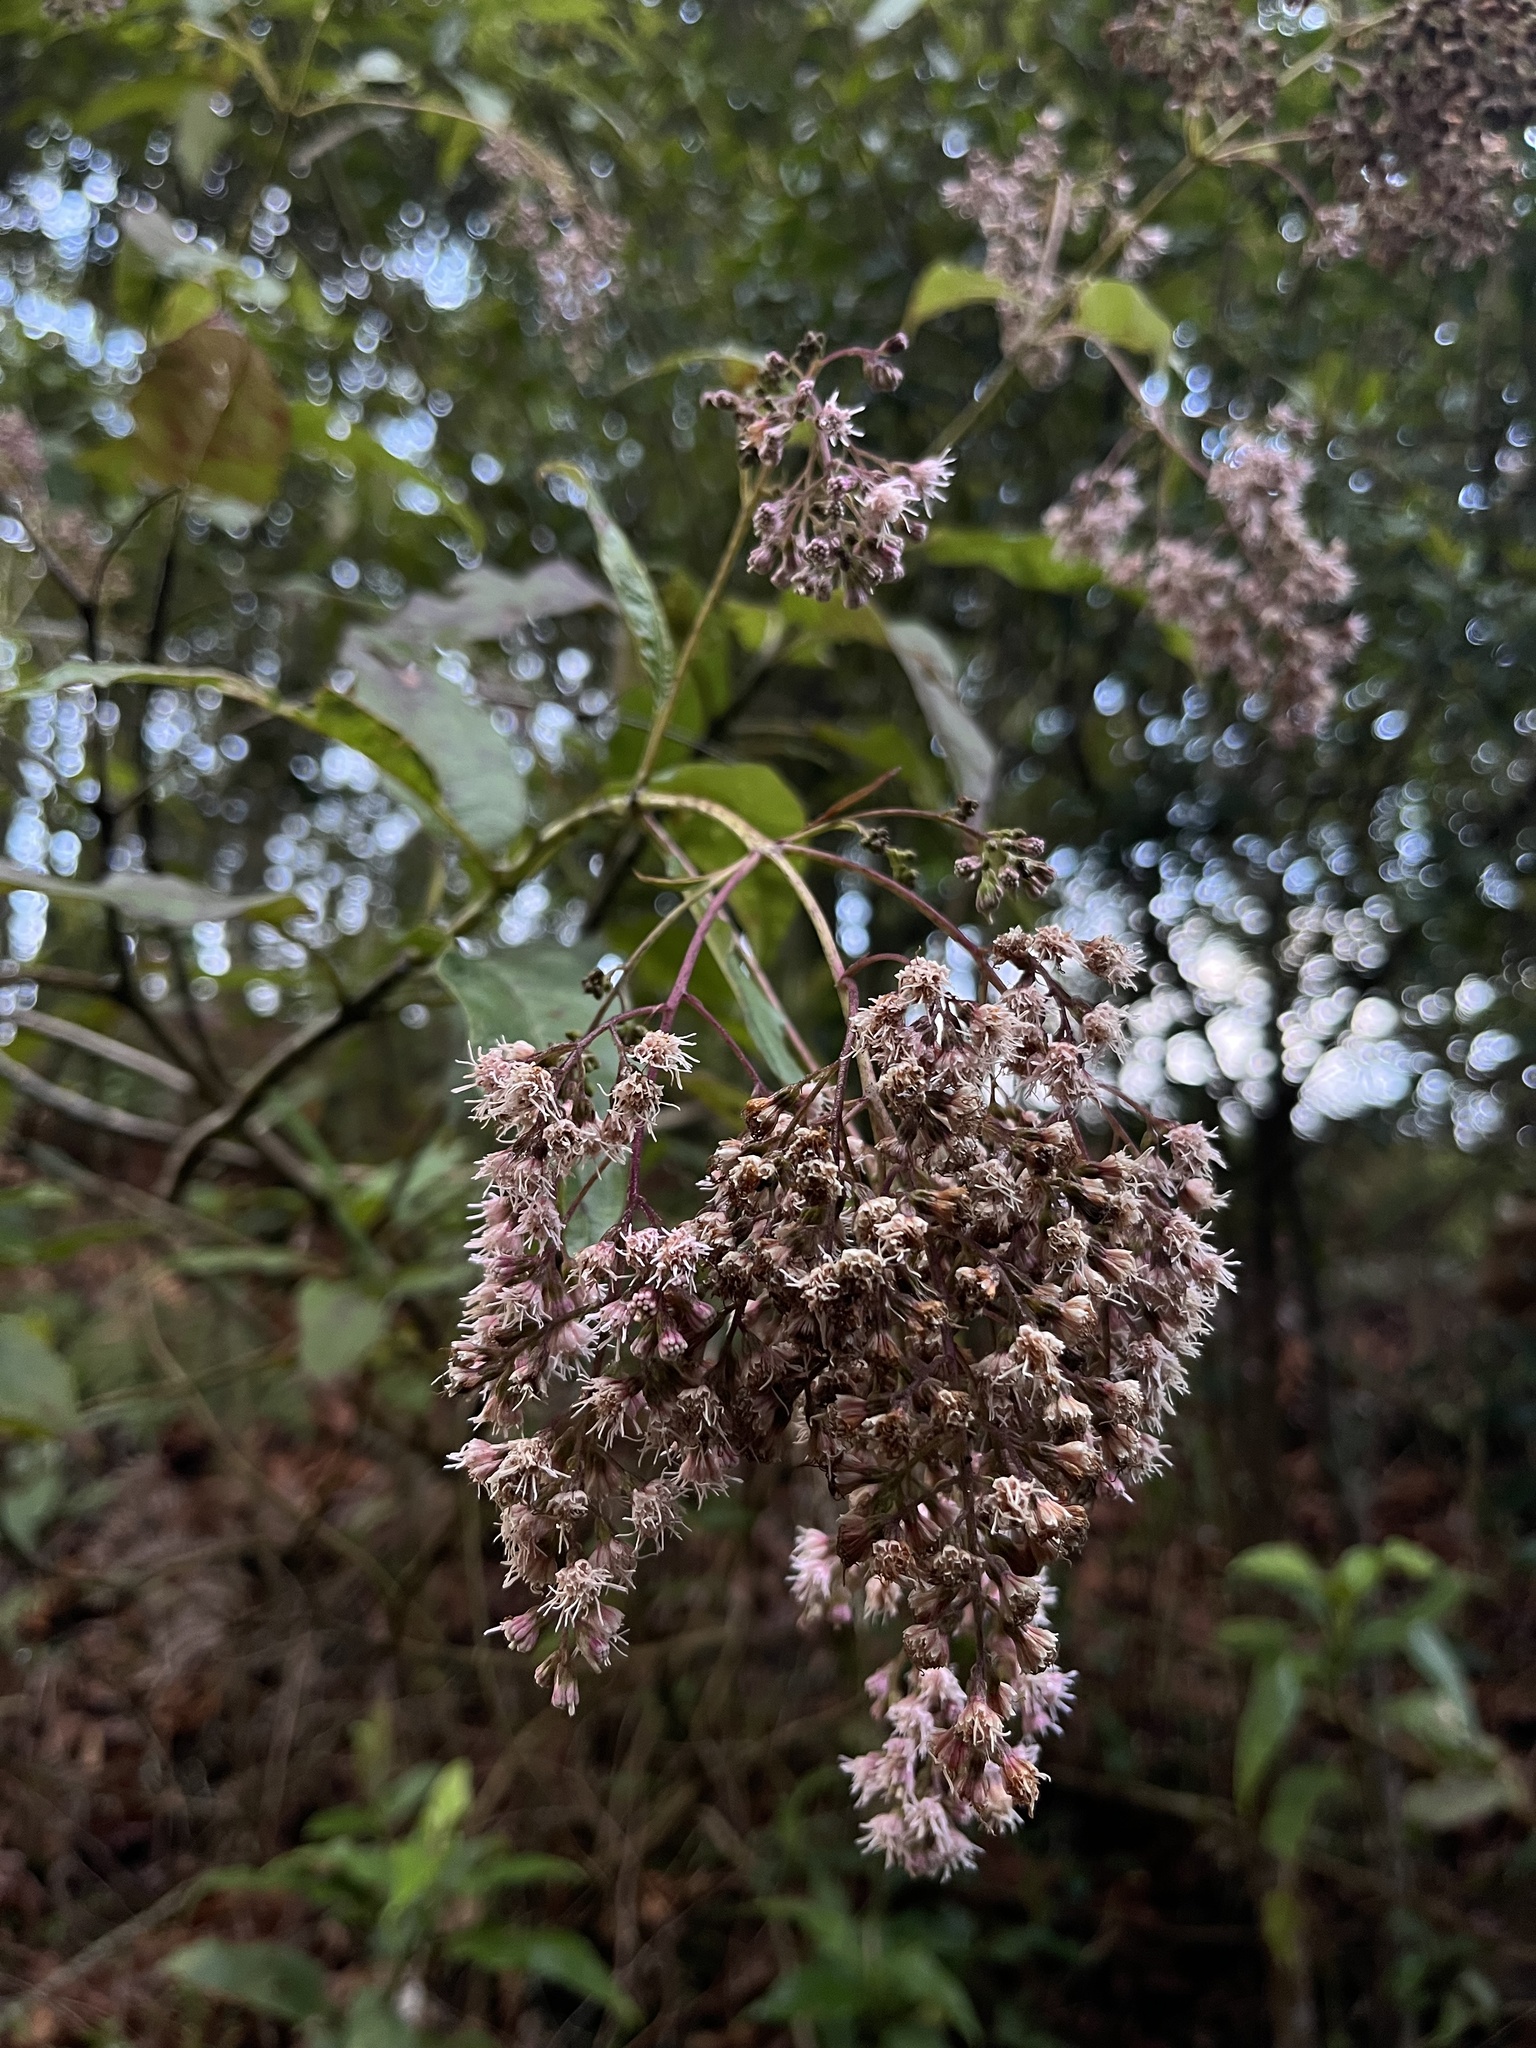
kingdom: Plantae
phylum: Tracheophyta
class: Magnoliopsida
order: Asterales
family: Asteraceae
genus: Ageratina
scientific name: Ageratina ampla
